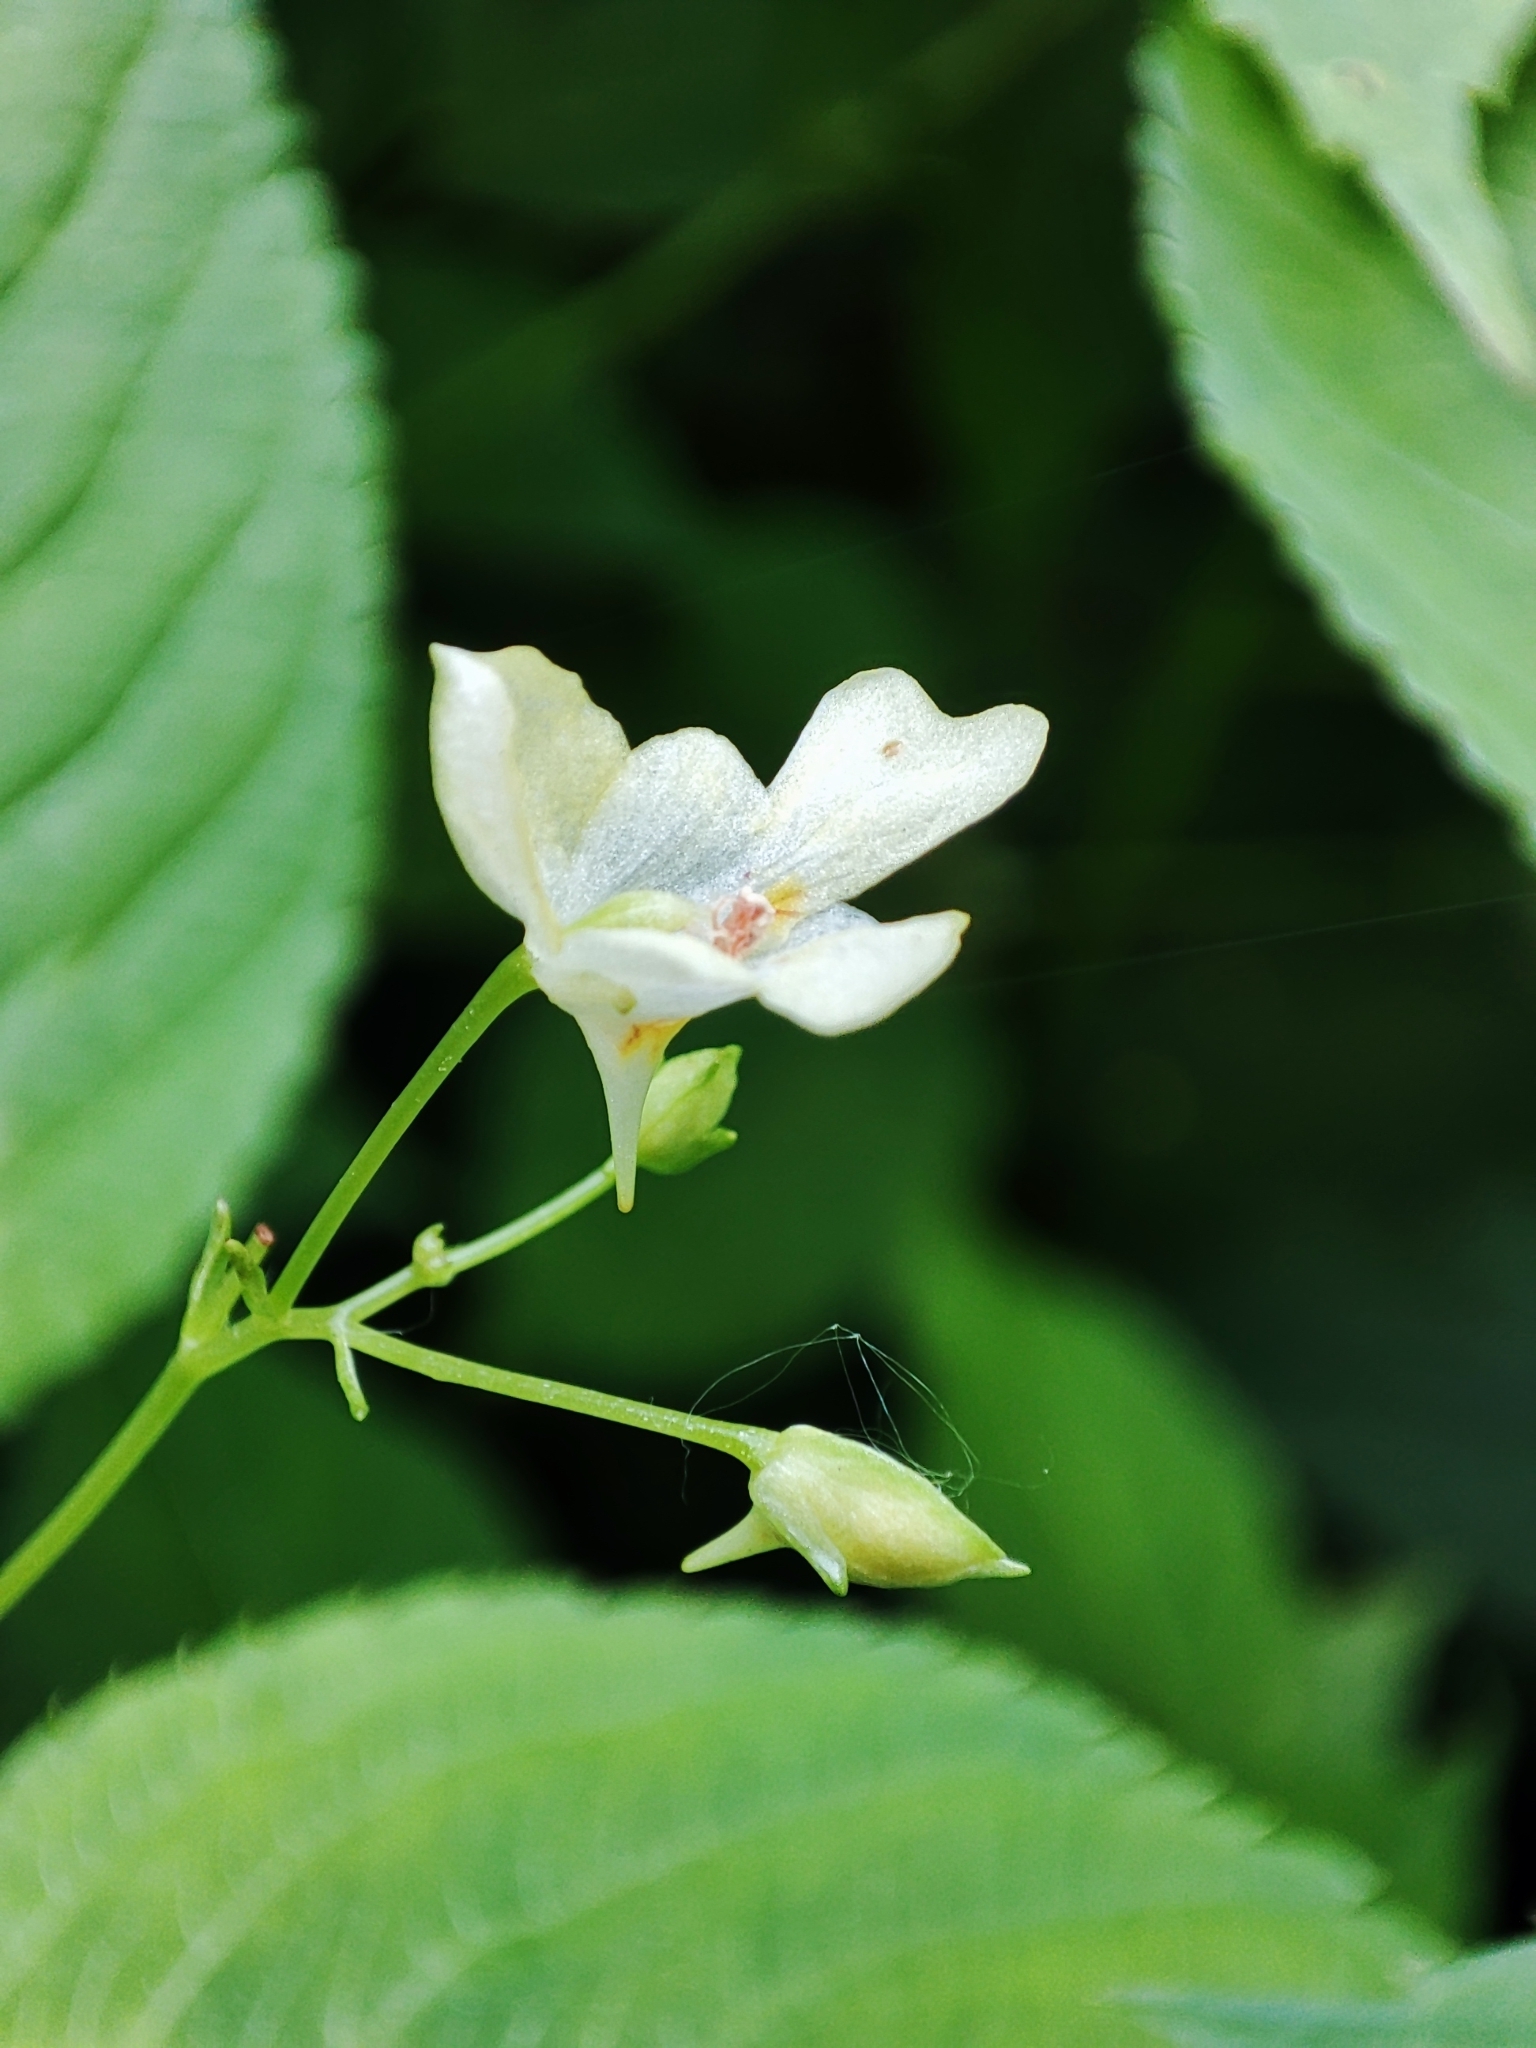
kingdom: Plantae
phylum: Tracheophyta
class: Magnoliopsida
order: Ericales
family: Balsaminaceae
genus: Impatiens
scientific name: Impatiens parviflora
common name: Small balsam
